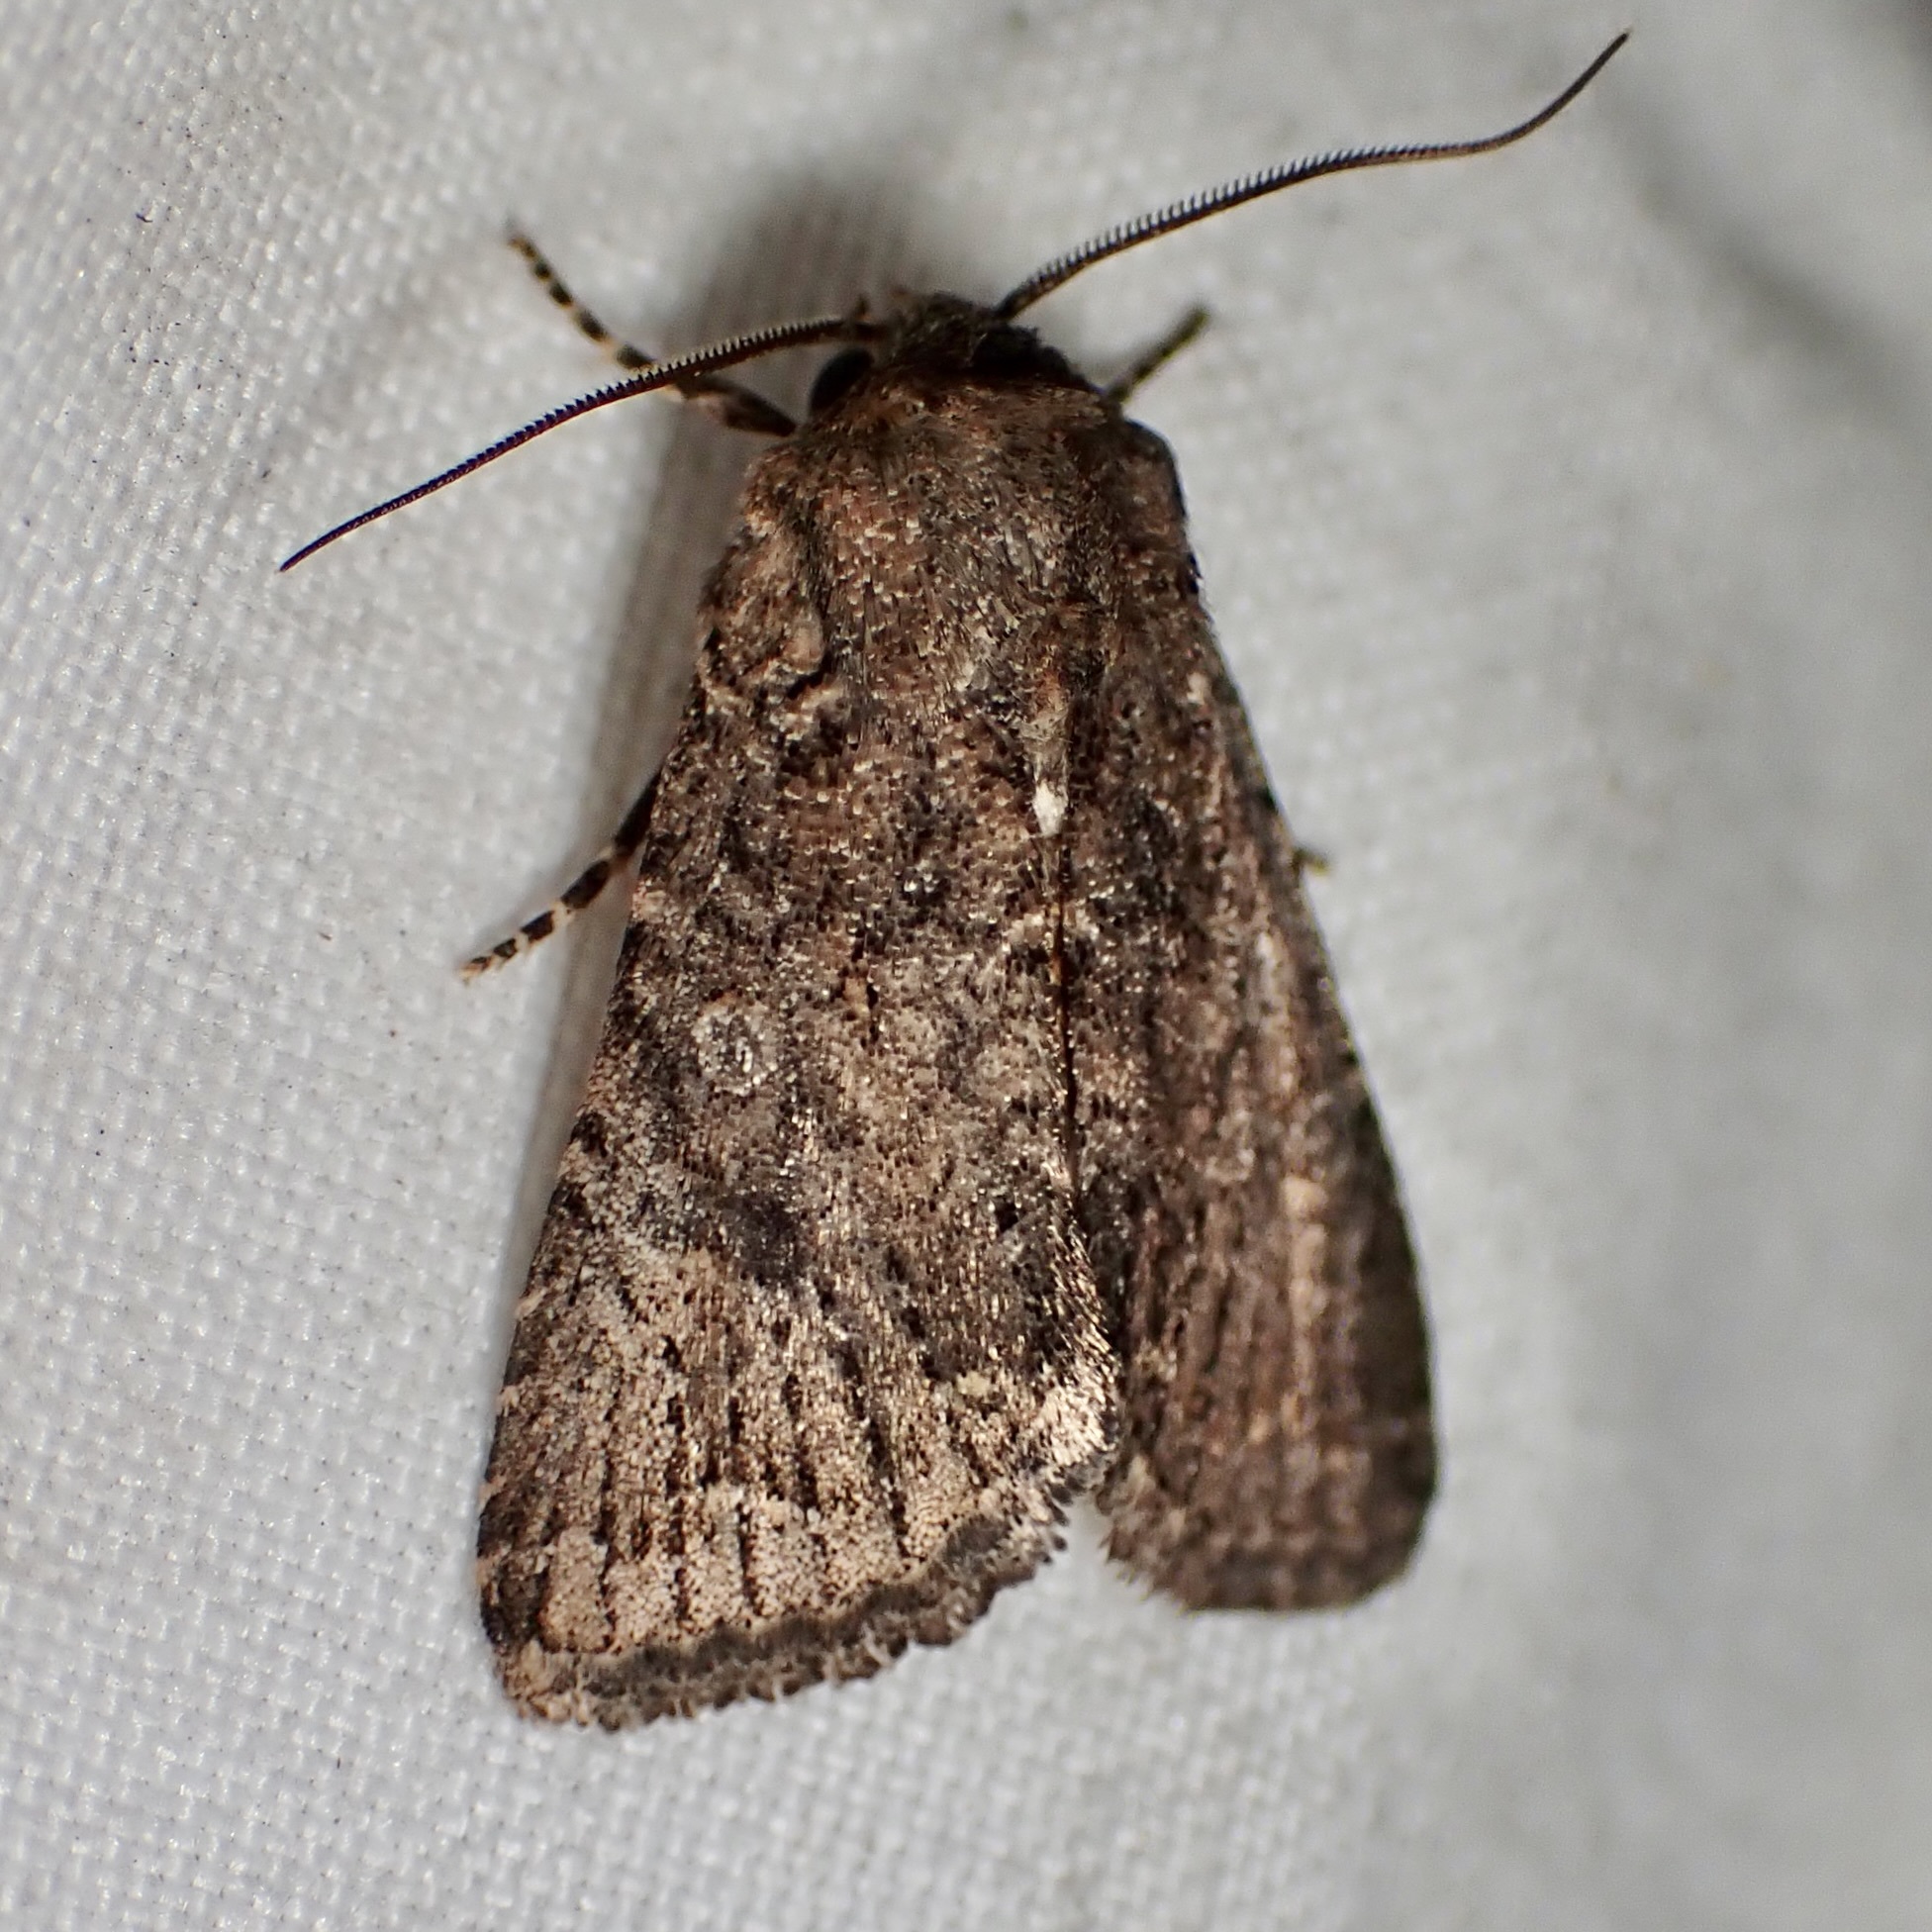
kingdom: Animalia
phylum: Arthropoda
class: Insecta
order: Lepidoptera
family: Noctuidae
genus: Trichopolia
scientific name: Trichopolia
